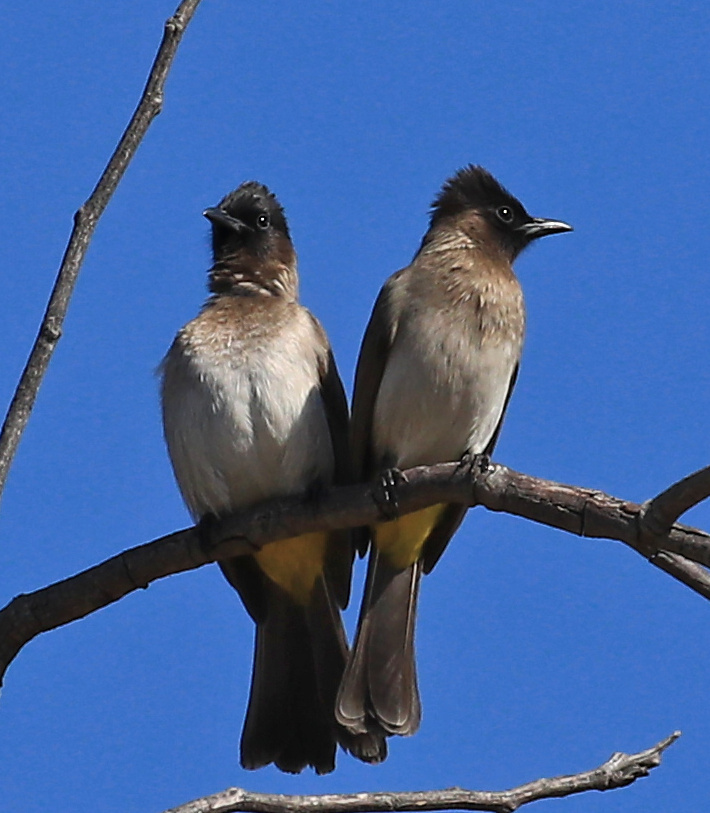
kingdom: Animalia
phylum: Chordata
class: Aves
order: Passeriformes
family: Pycnonotidae
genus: Pycnonotus
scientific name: Pycnonotus barbatus
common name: Common bulbul
